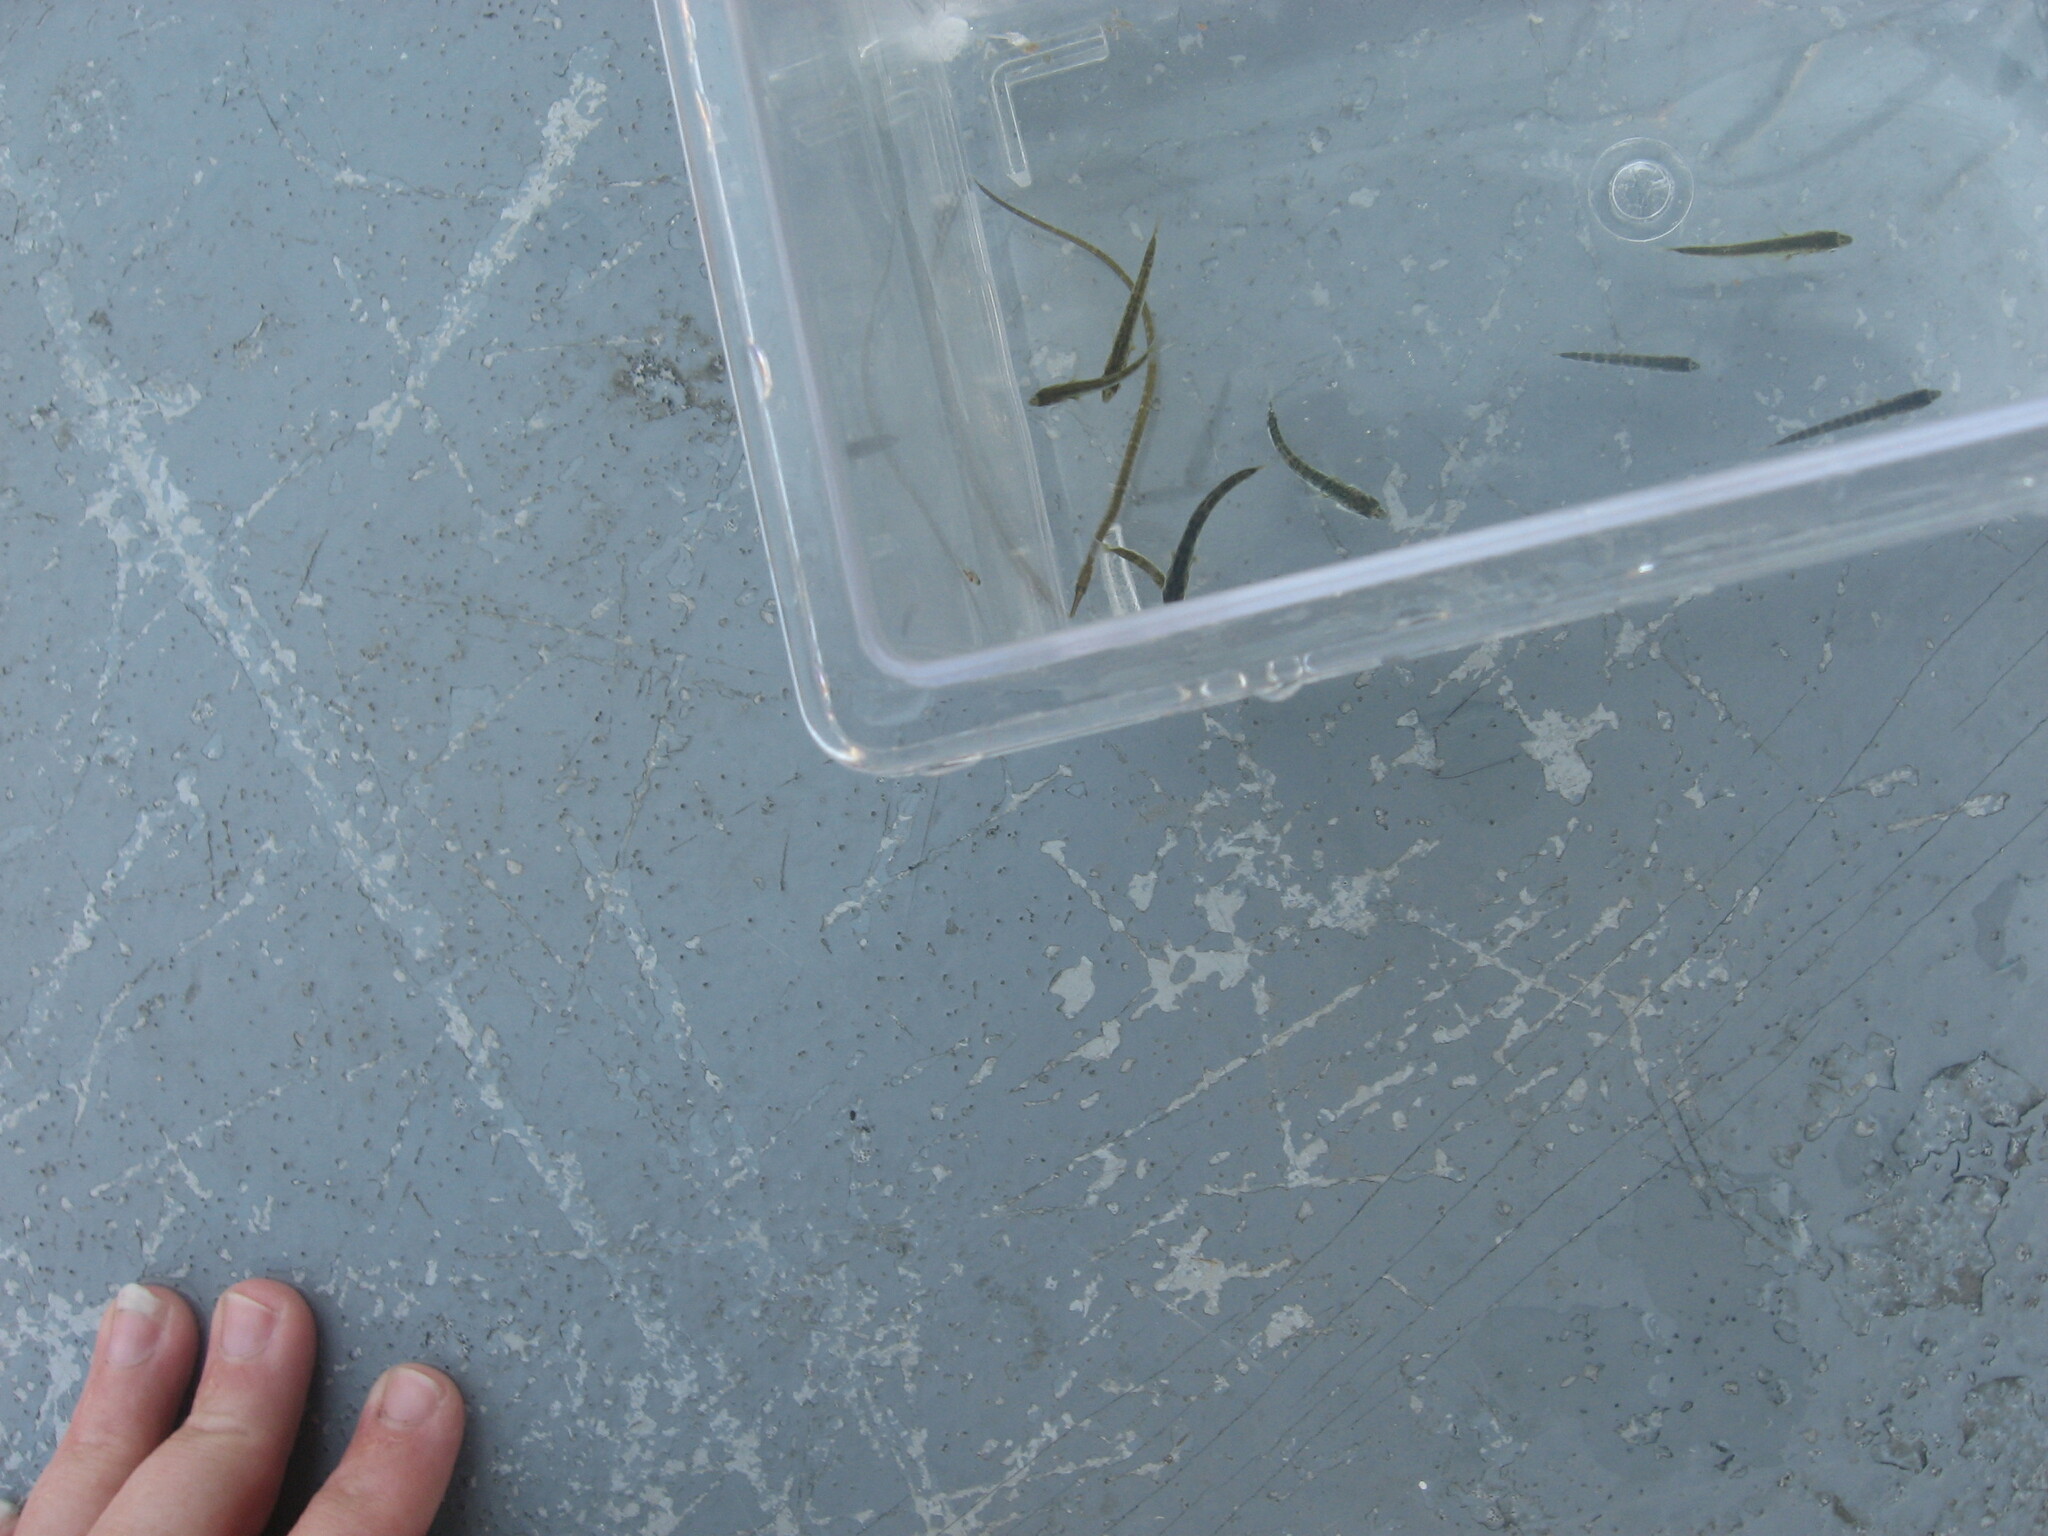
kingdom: Animalia
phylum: Chordata
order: Syngnathiformes
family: Syngnathidae
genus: Syngnathus
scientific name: Syngnathus californiensis
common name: Great pipefish
